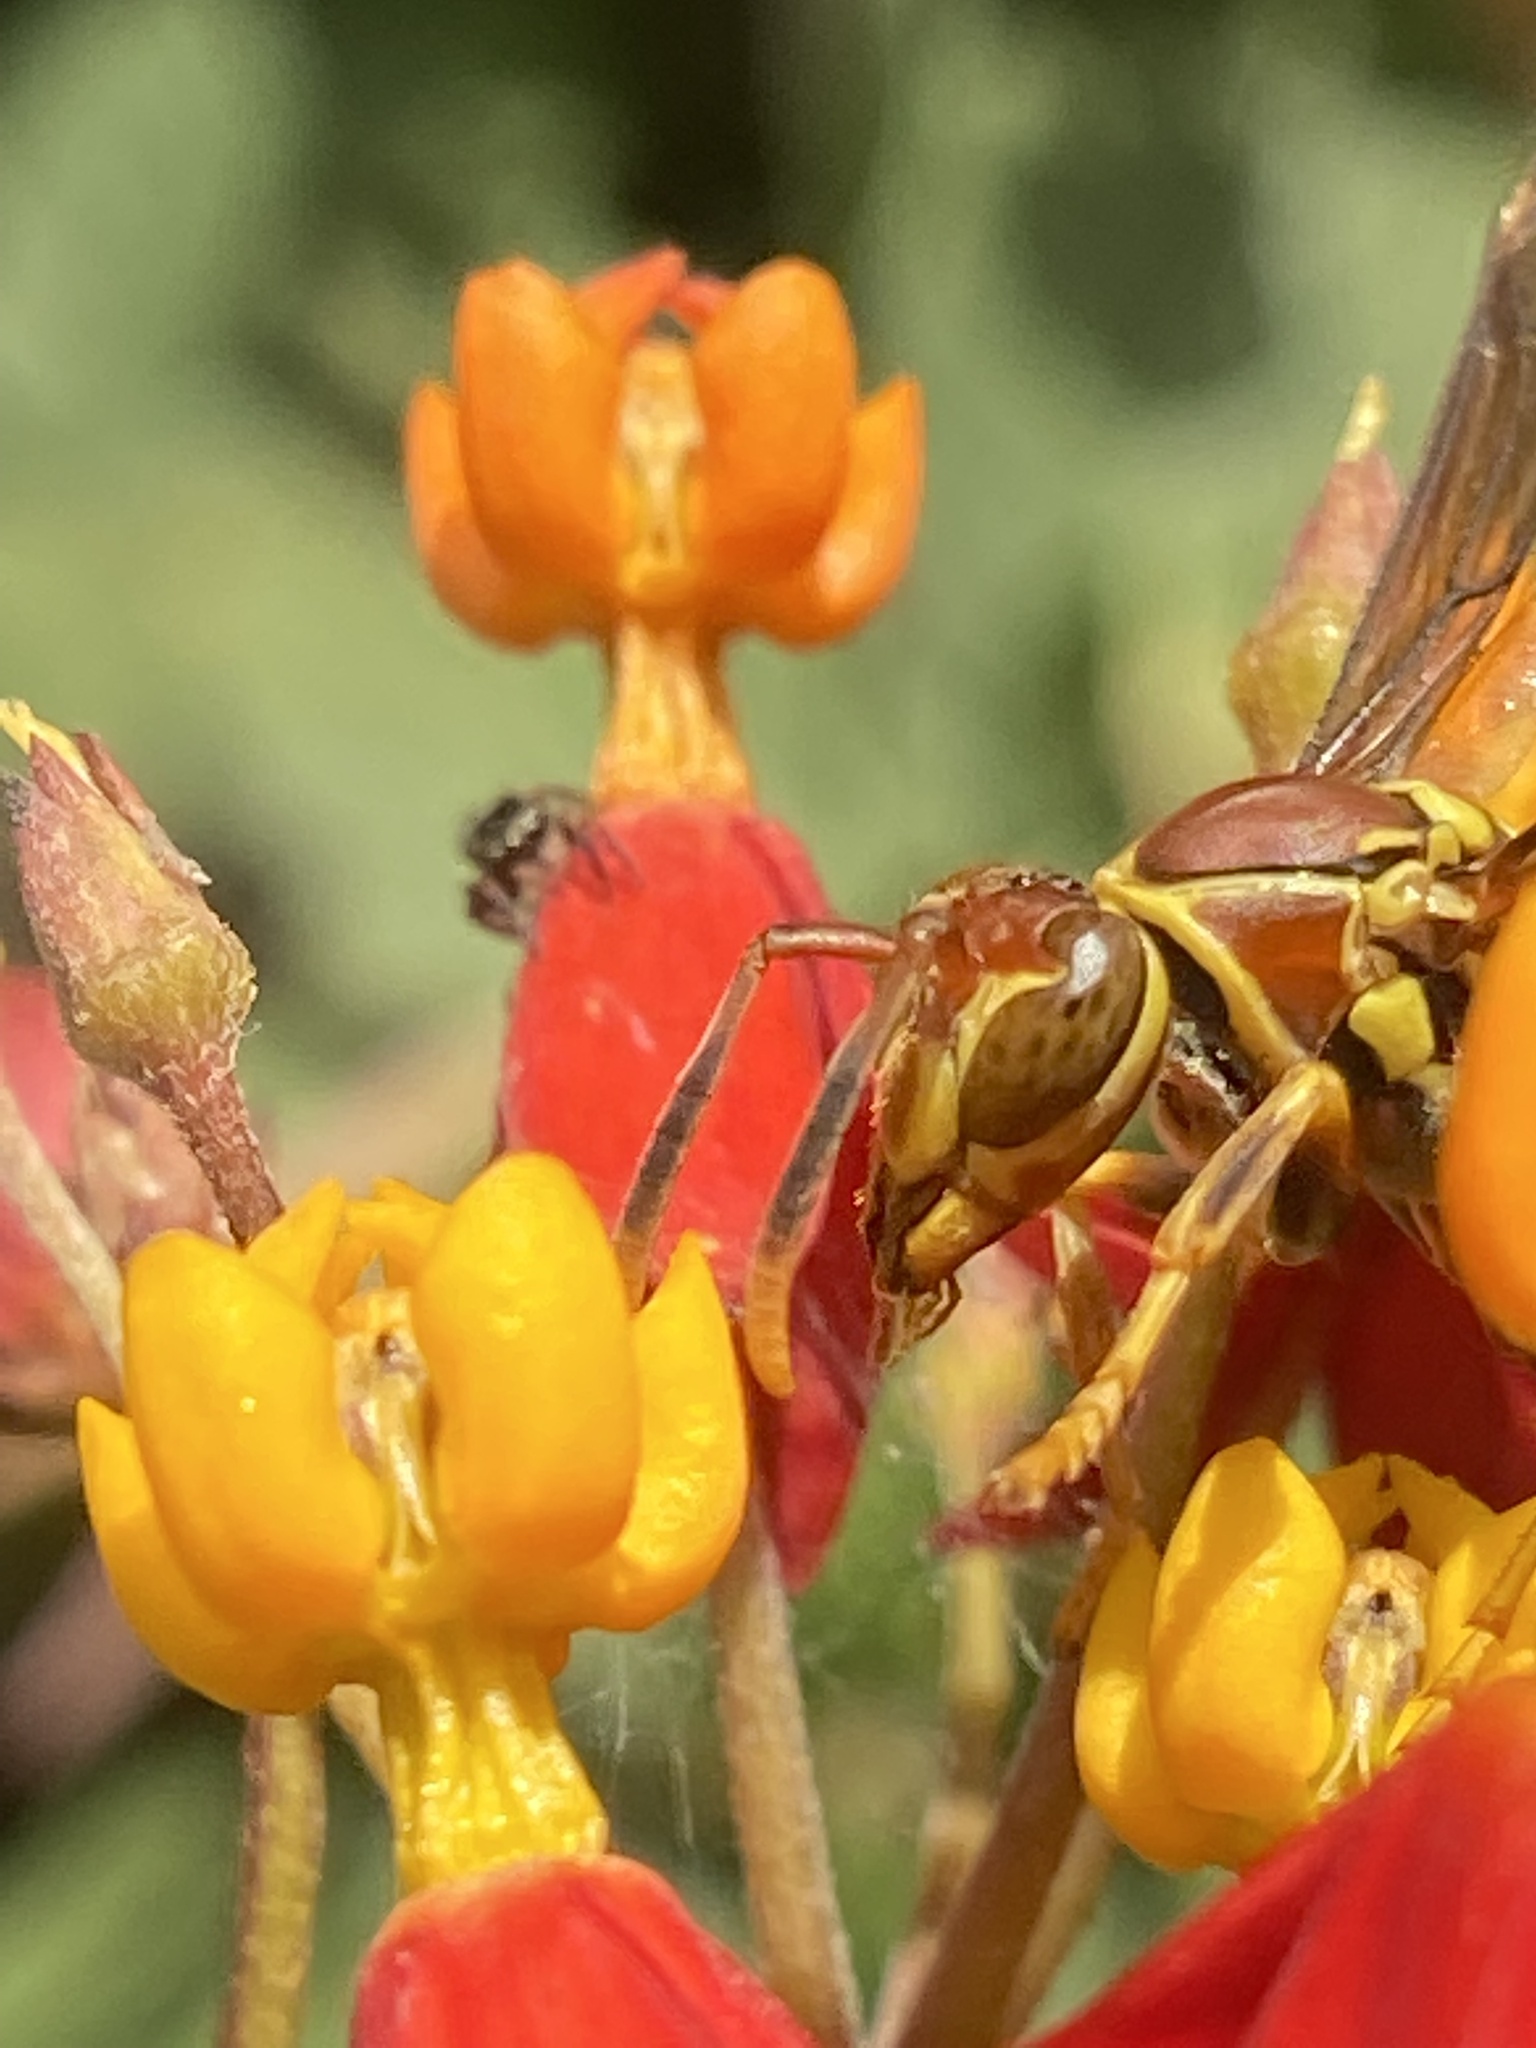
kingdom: Animalia
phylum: Arthropoda
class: Insecta
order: Hymenoptera
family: Eumenidae
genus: Polistes
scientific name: Polistes exclamans
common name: Paper wasp
